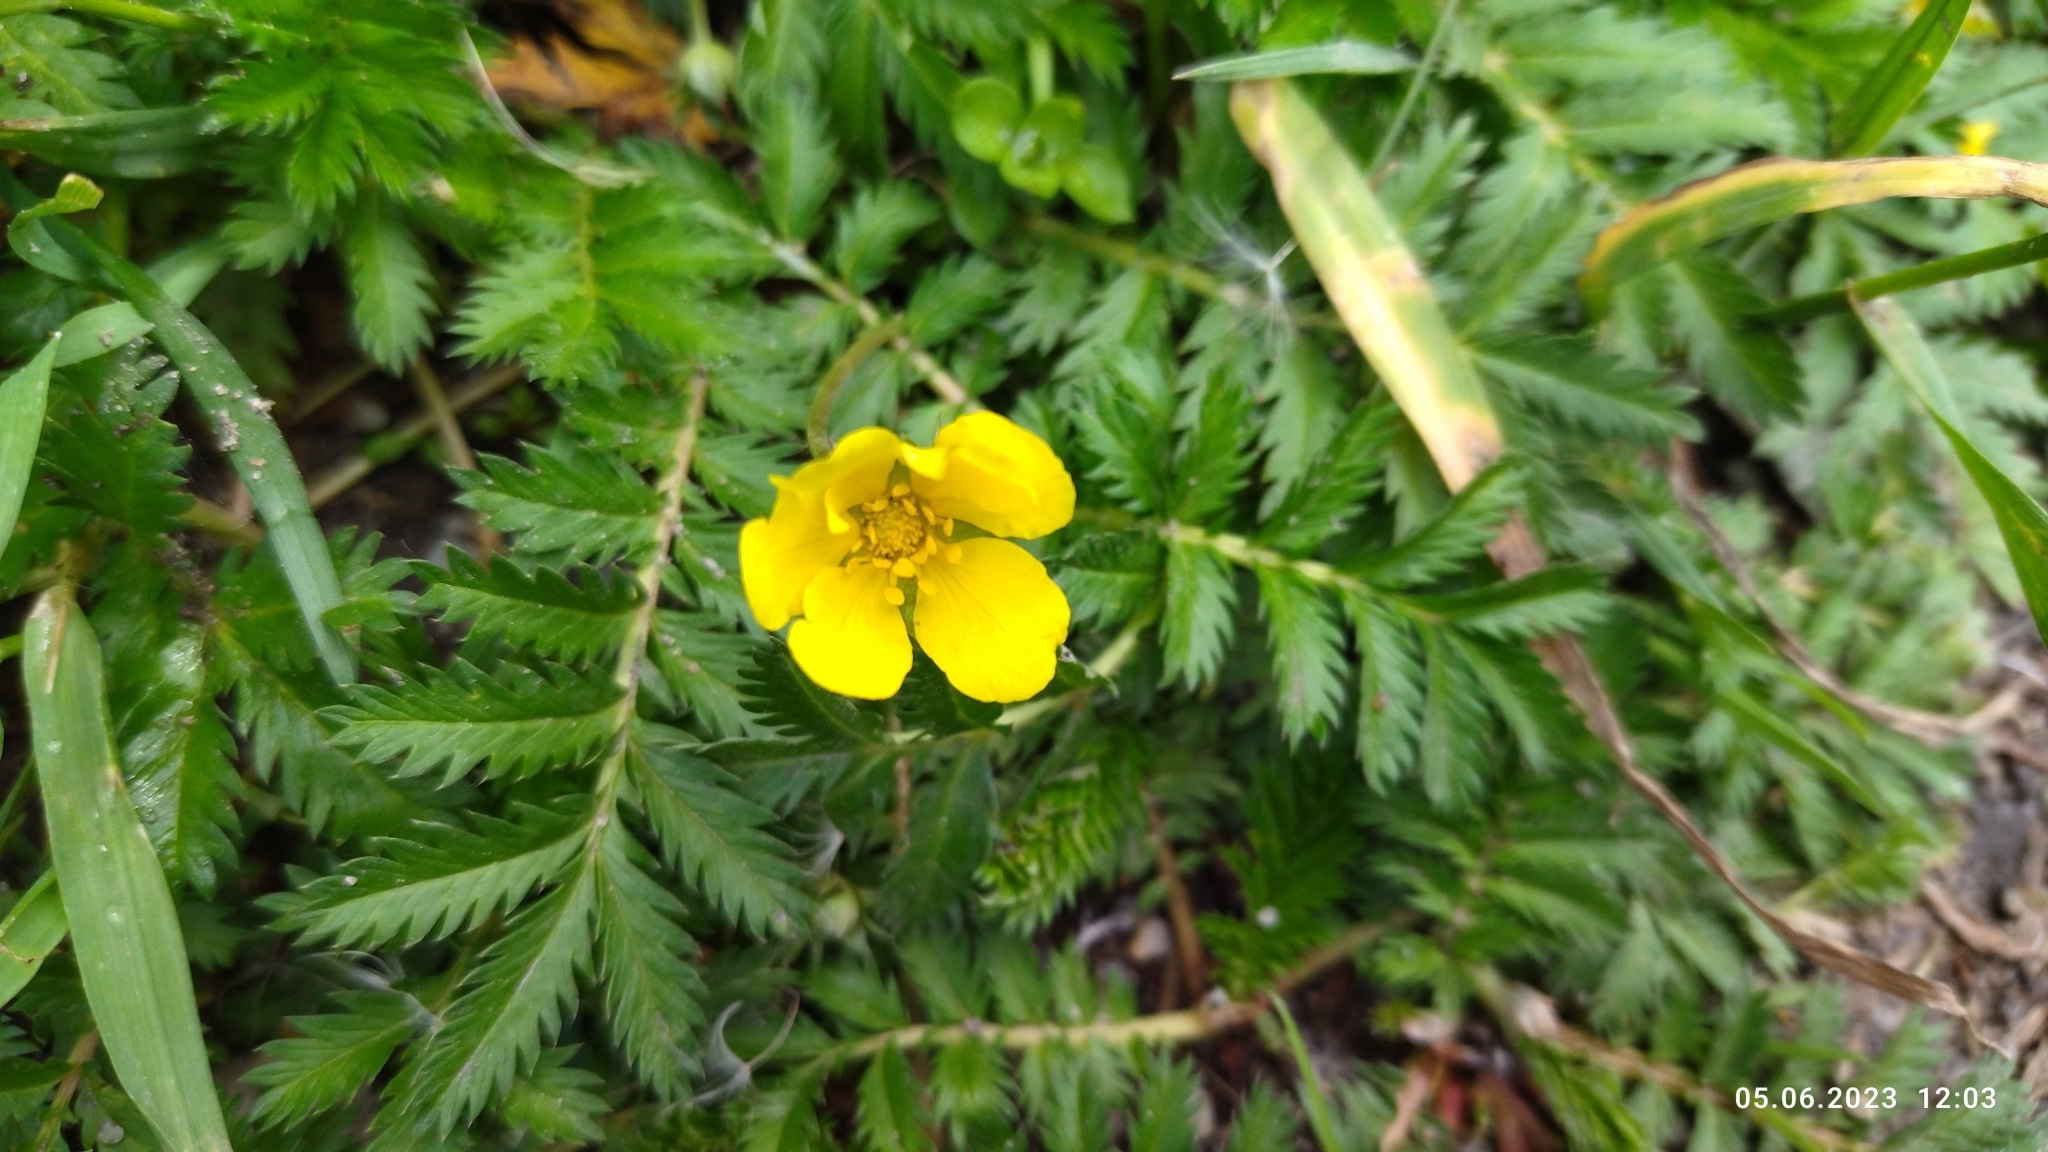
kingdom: Plantae
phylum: Tracheophyta
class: Magnoliopsida
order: Rosales
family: Rosaceae
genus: Argentina
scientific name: Argentina anserina
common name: Common silverweed
